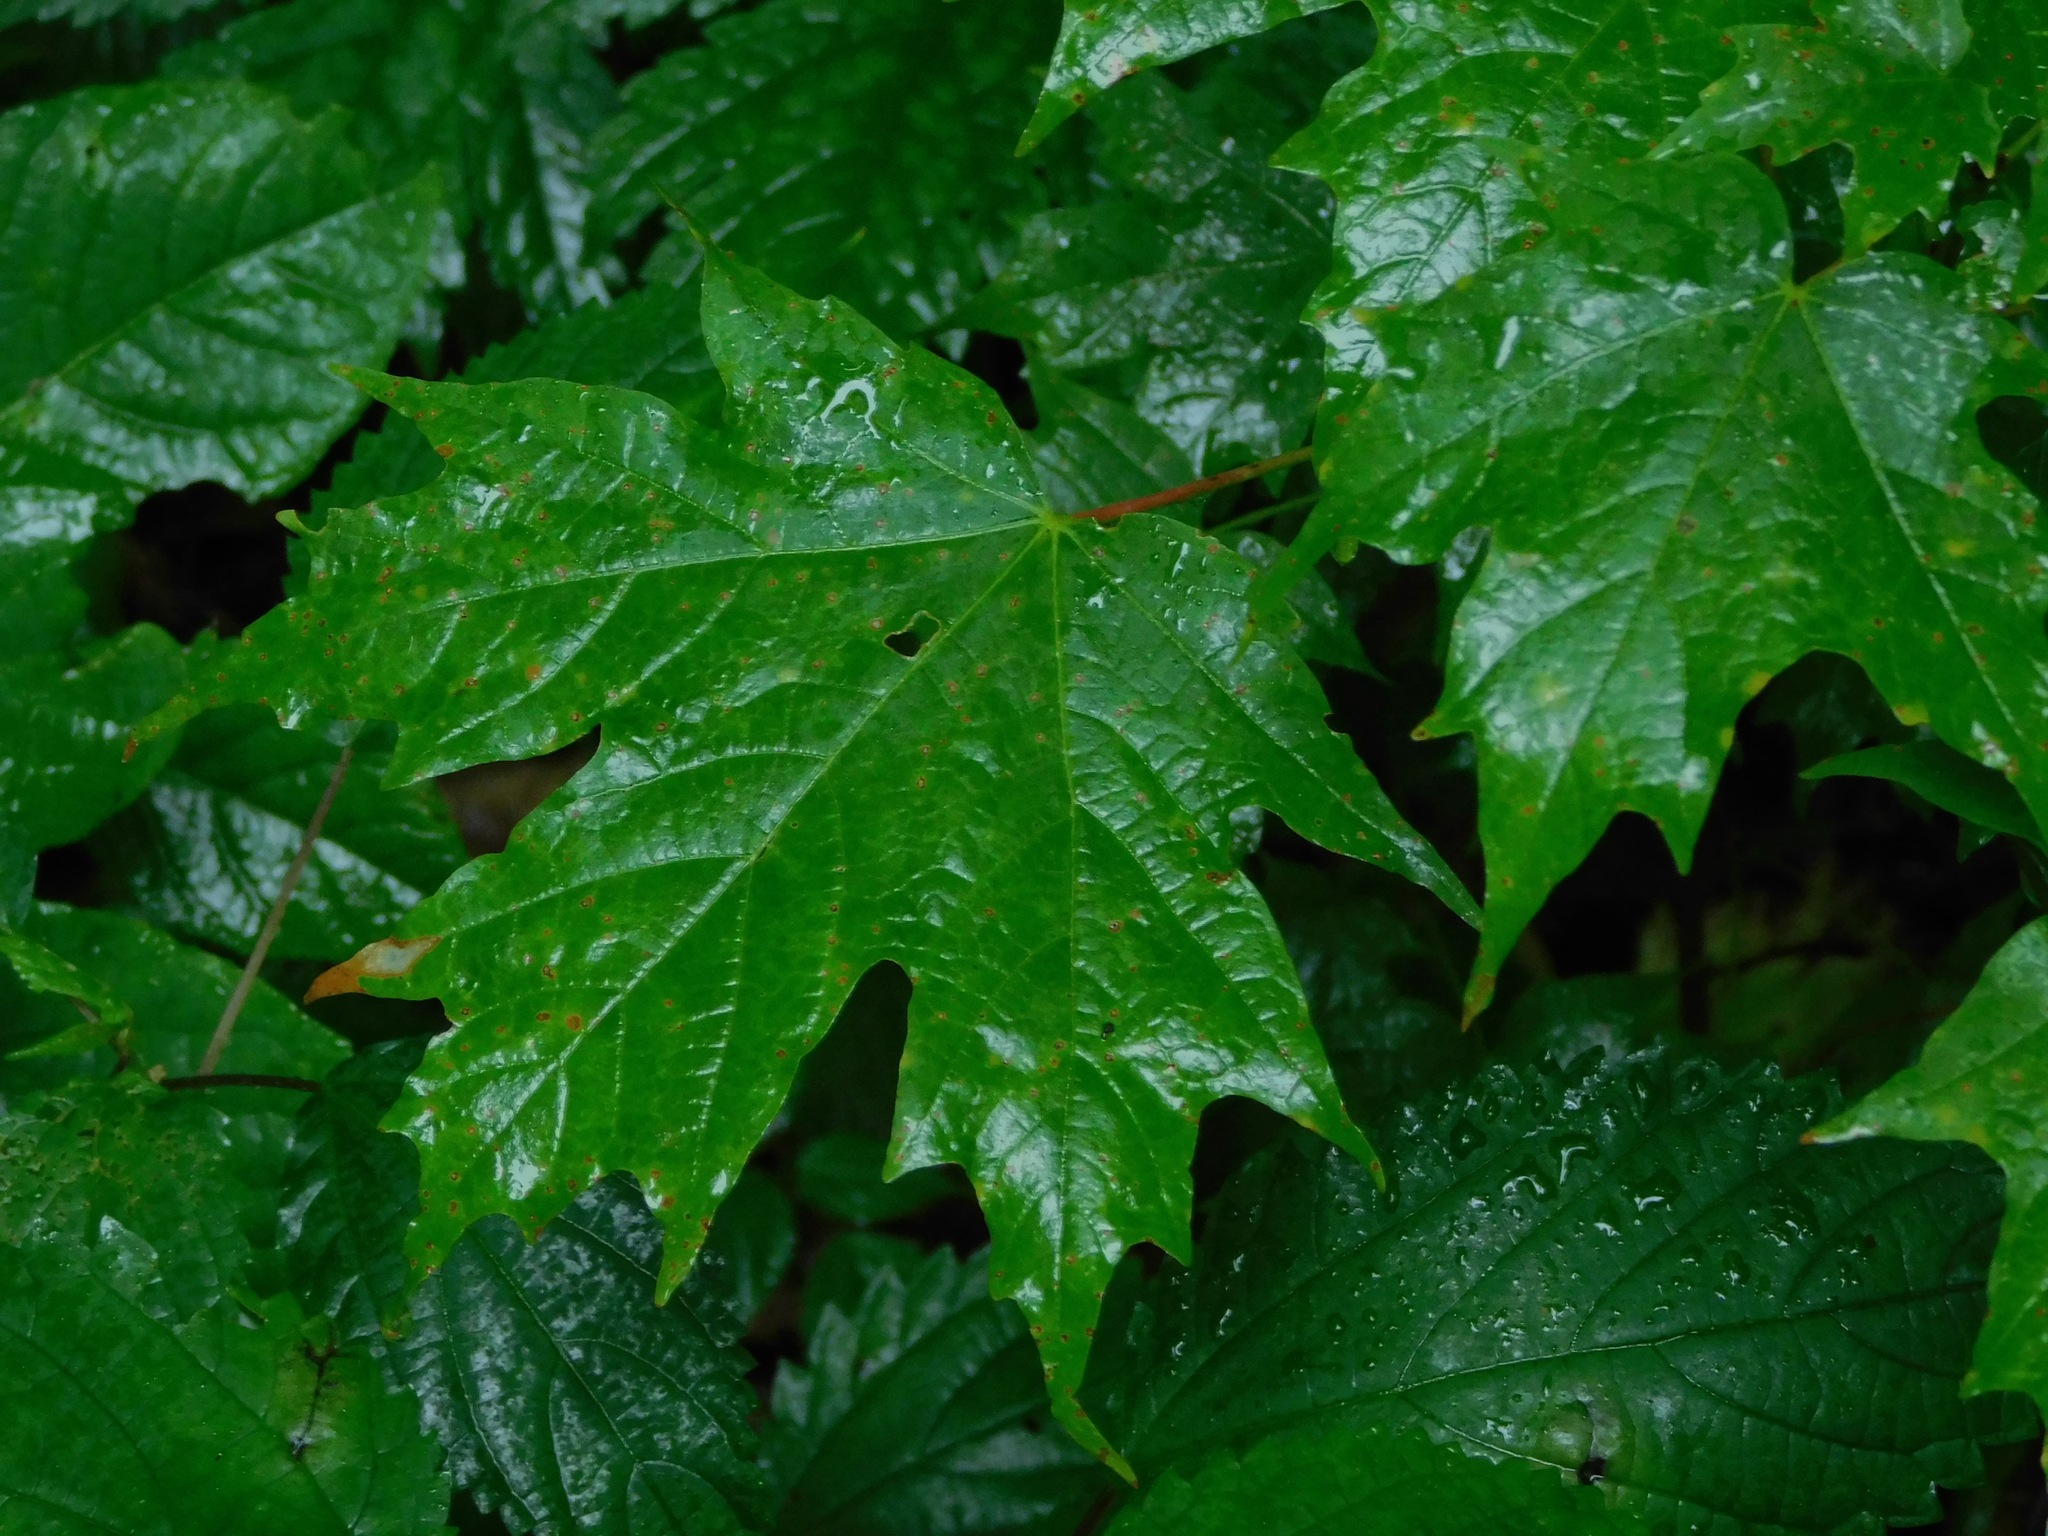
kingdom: Plantae
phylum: Tracheophyta
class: Magnoliopsida
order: Sapindales
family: Sapindaceae
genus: Acer
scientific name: Acer saccharum
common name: Sugar maple
